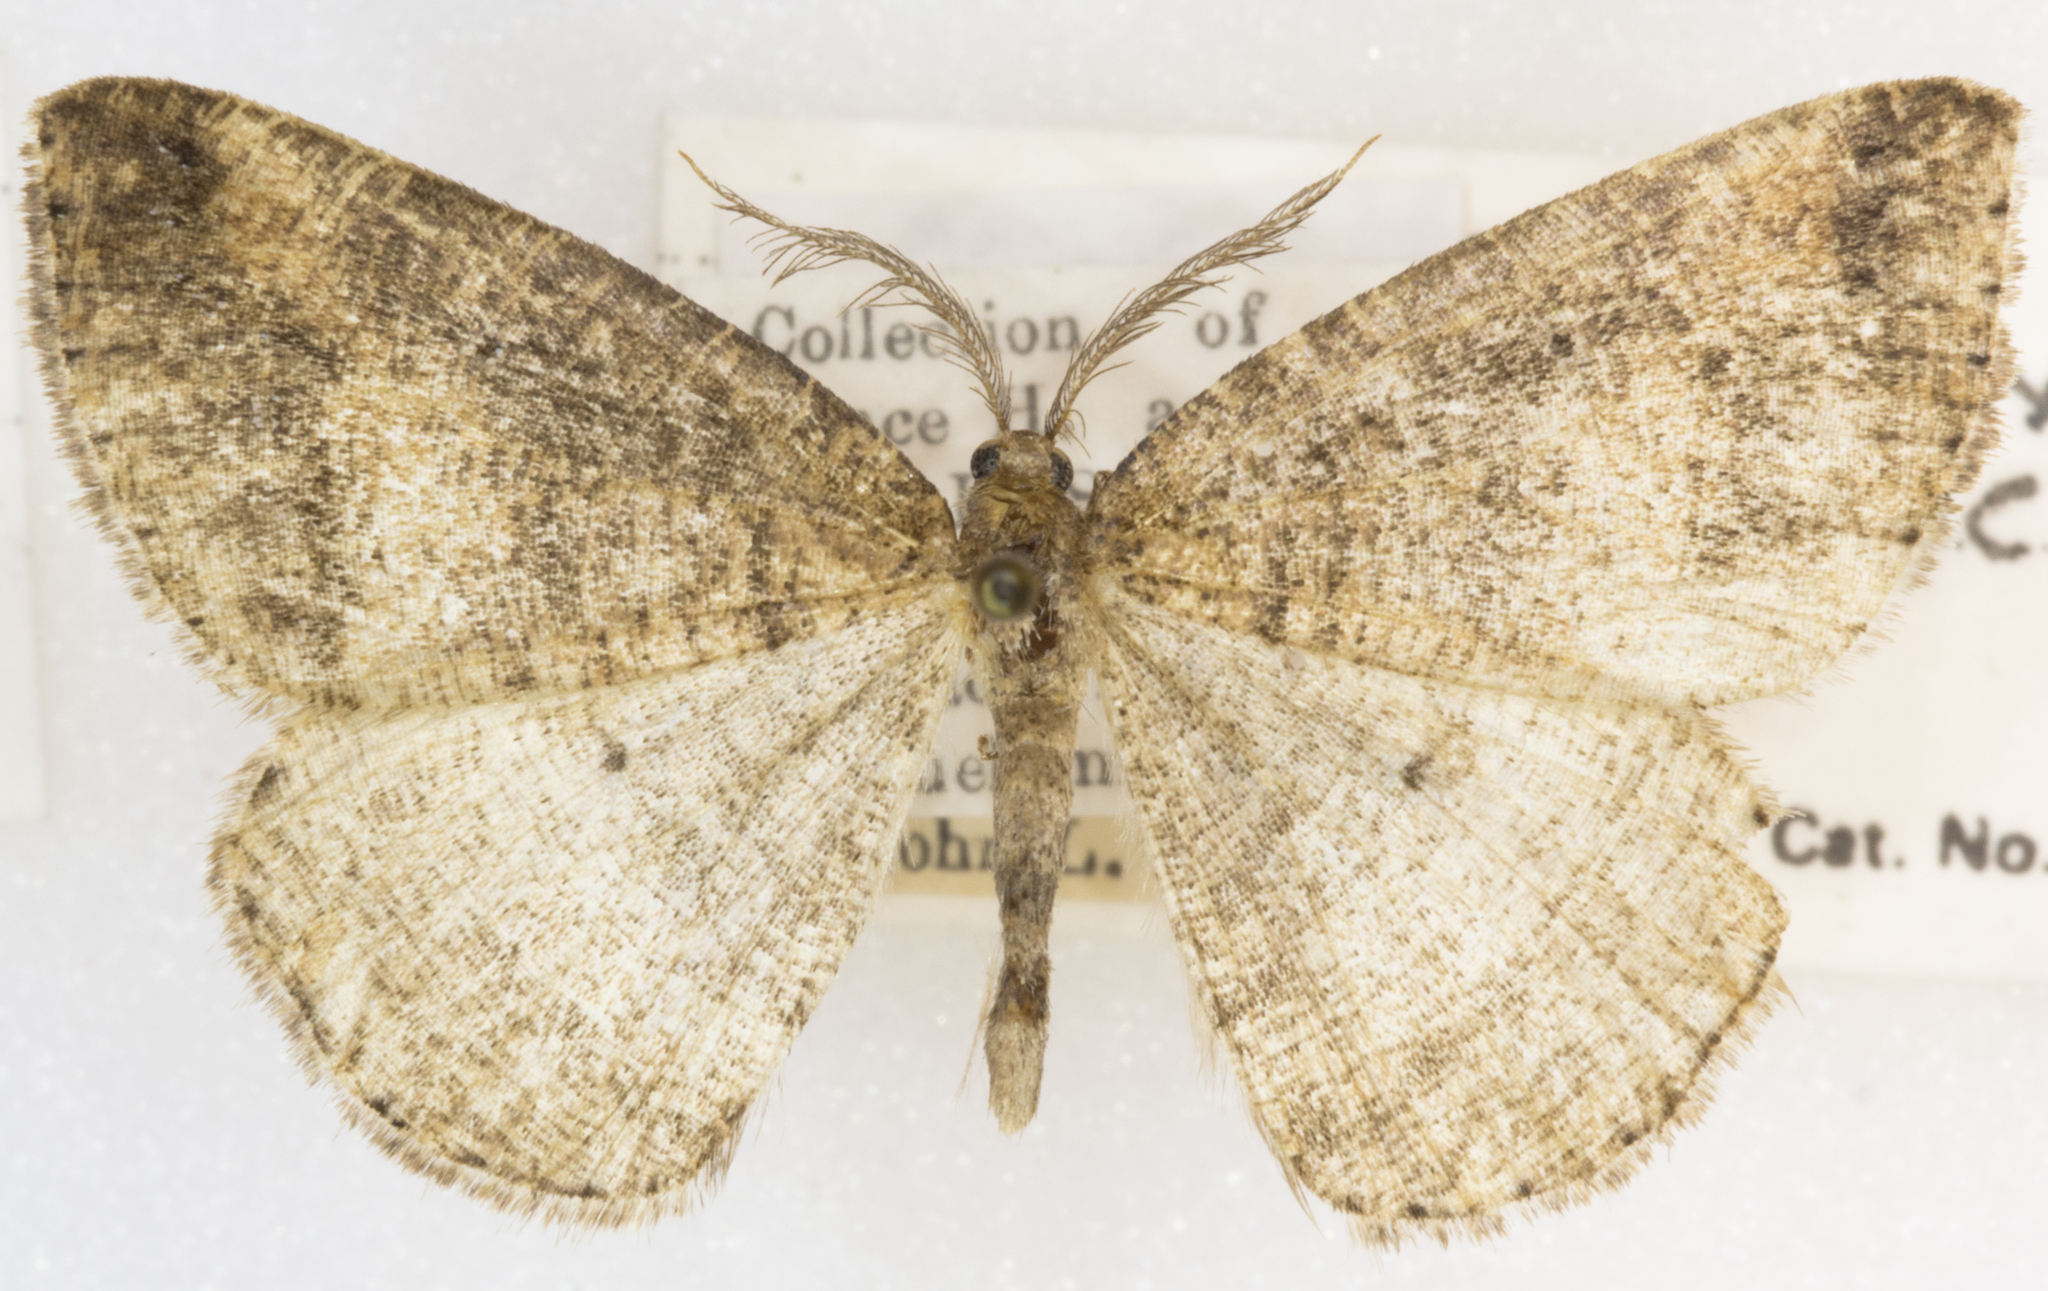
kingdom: Animalia
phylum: Arthropoda
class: Insecta
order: Lepidoptera
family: Geometridae
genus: Drepanulatrix
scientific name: Drepanulatrix faeminaria
